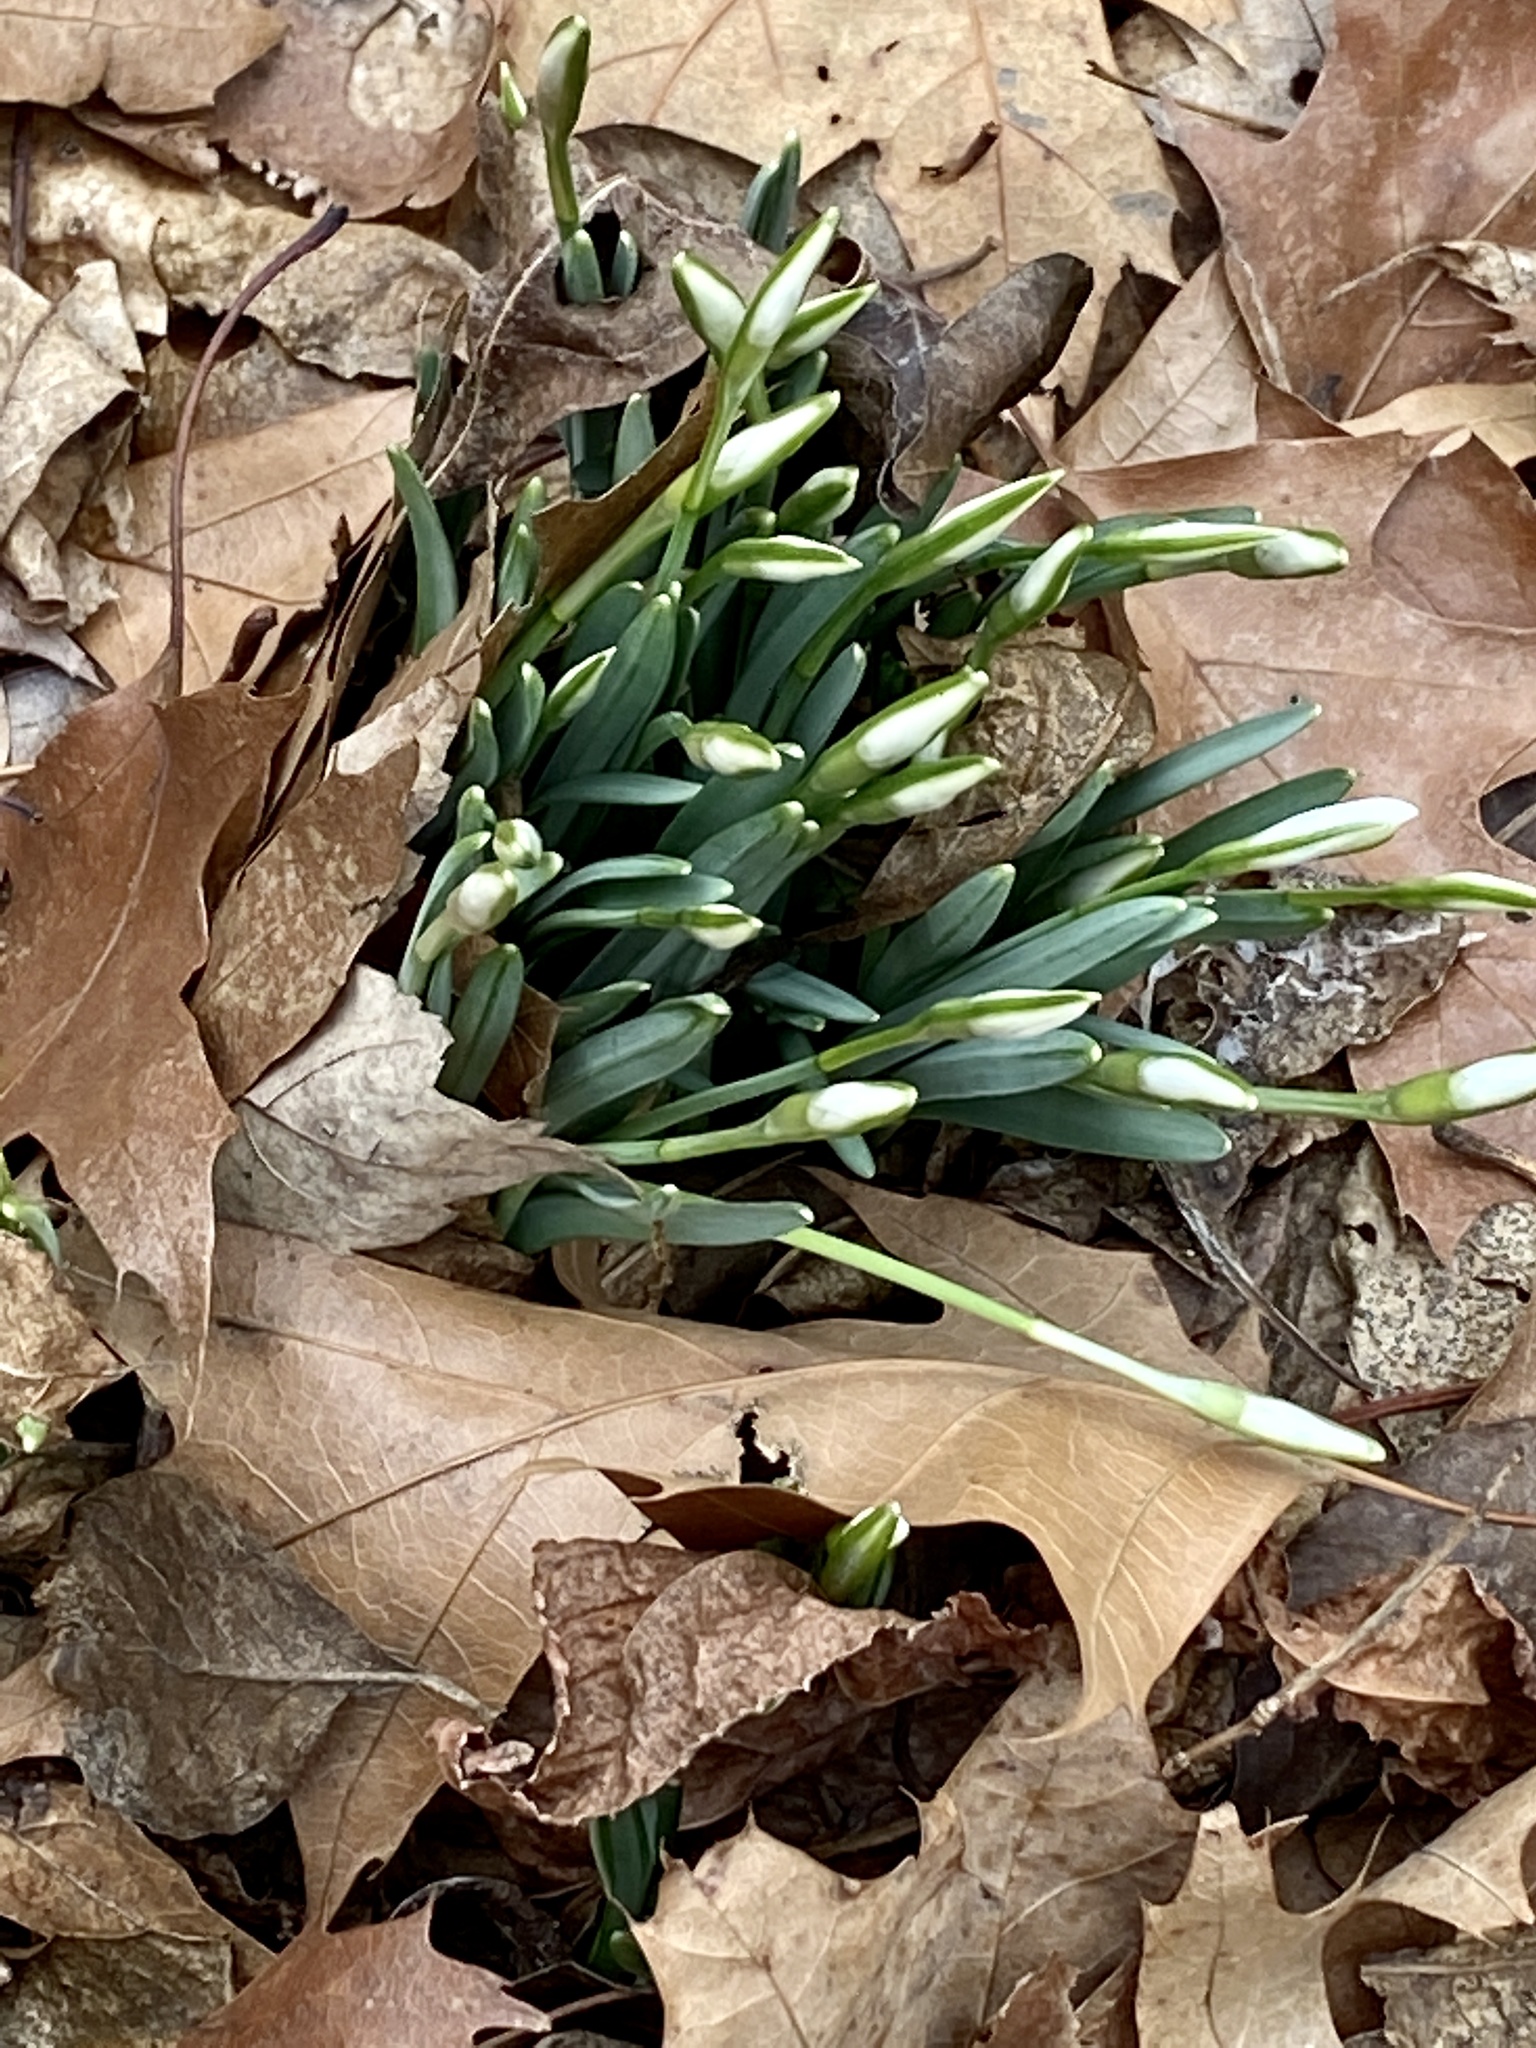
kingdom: Plantae
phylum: Tracheophyta
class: Liliopsida
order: Asparagales
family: Amaryllidaceae
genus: Galanthus
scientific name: Galanthus nivalis
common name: Snowdrop
